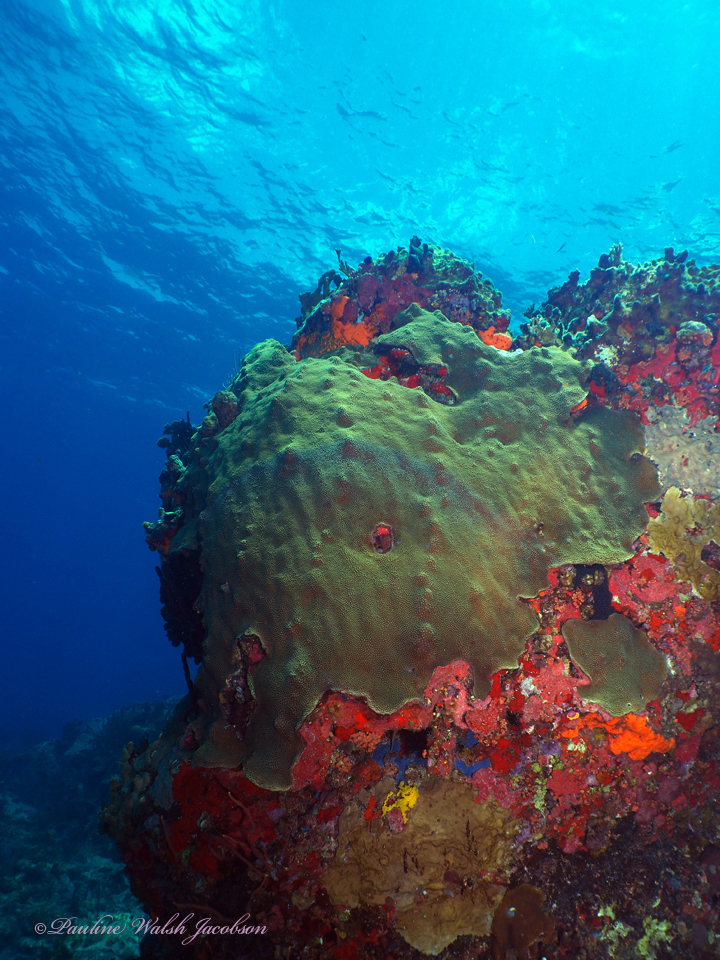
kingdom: Animalia
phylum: Cnidaria
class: Anthozoa
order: Scleractinia
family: Merulinidae
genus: Orbicella
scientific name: Orbicella faveolata
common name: Mountainous star coral
